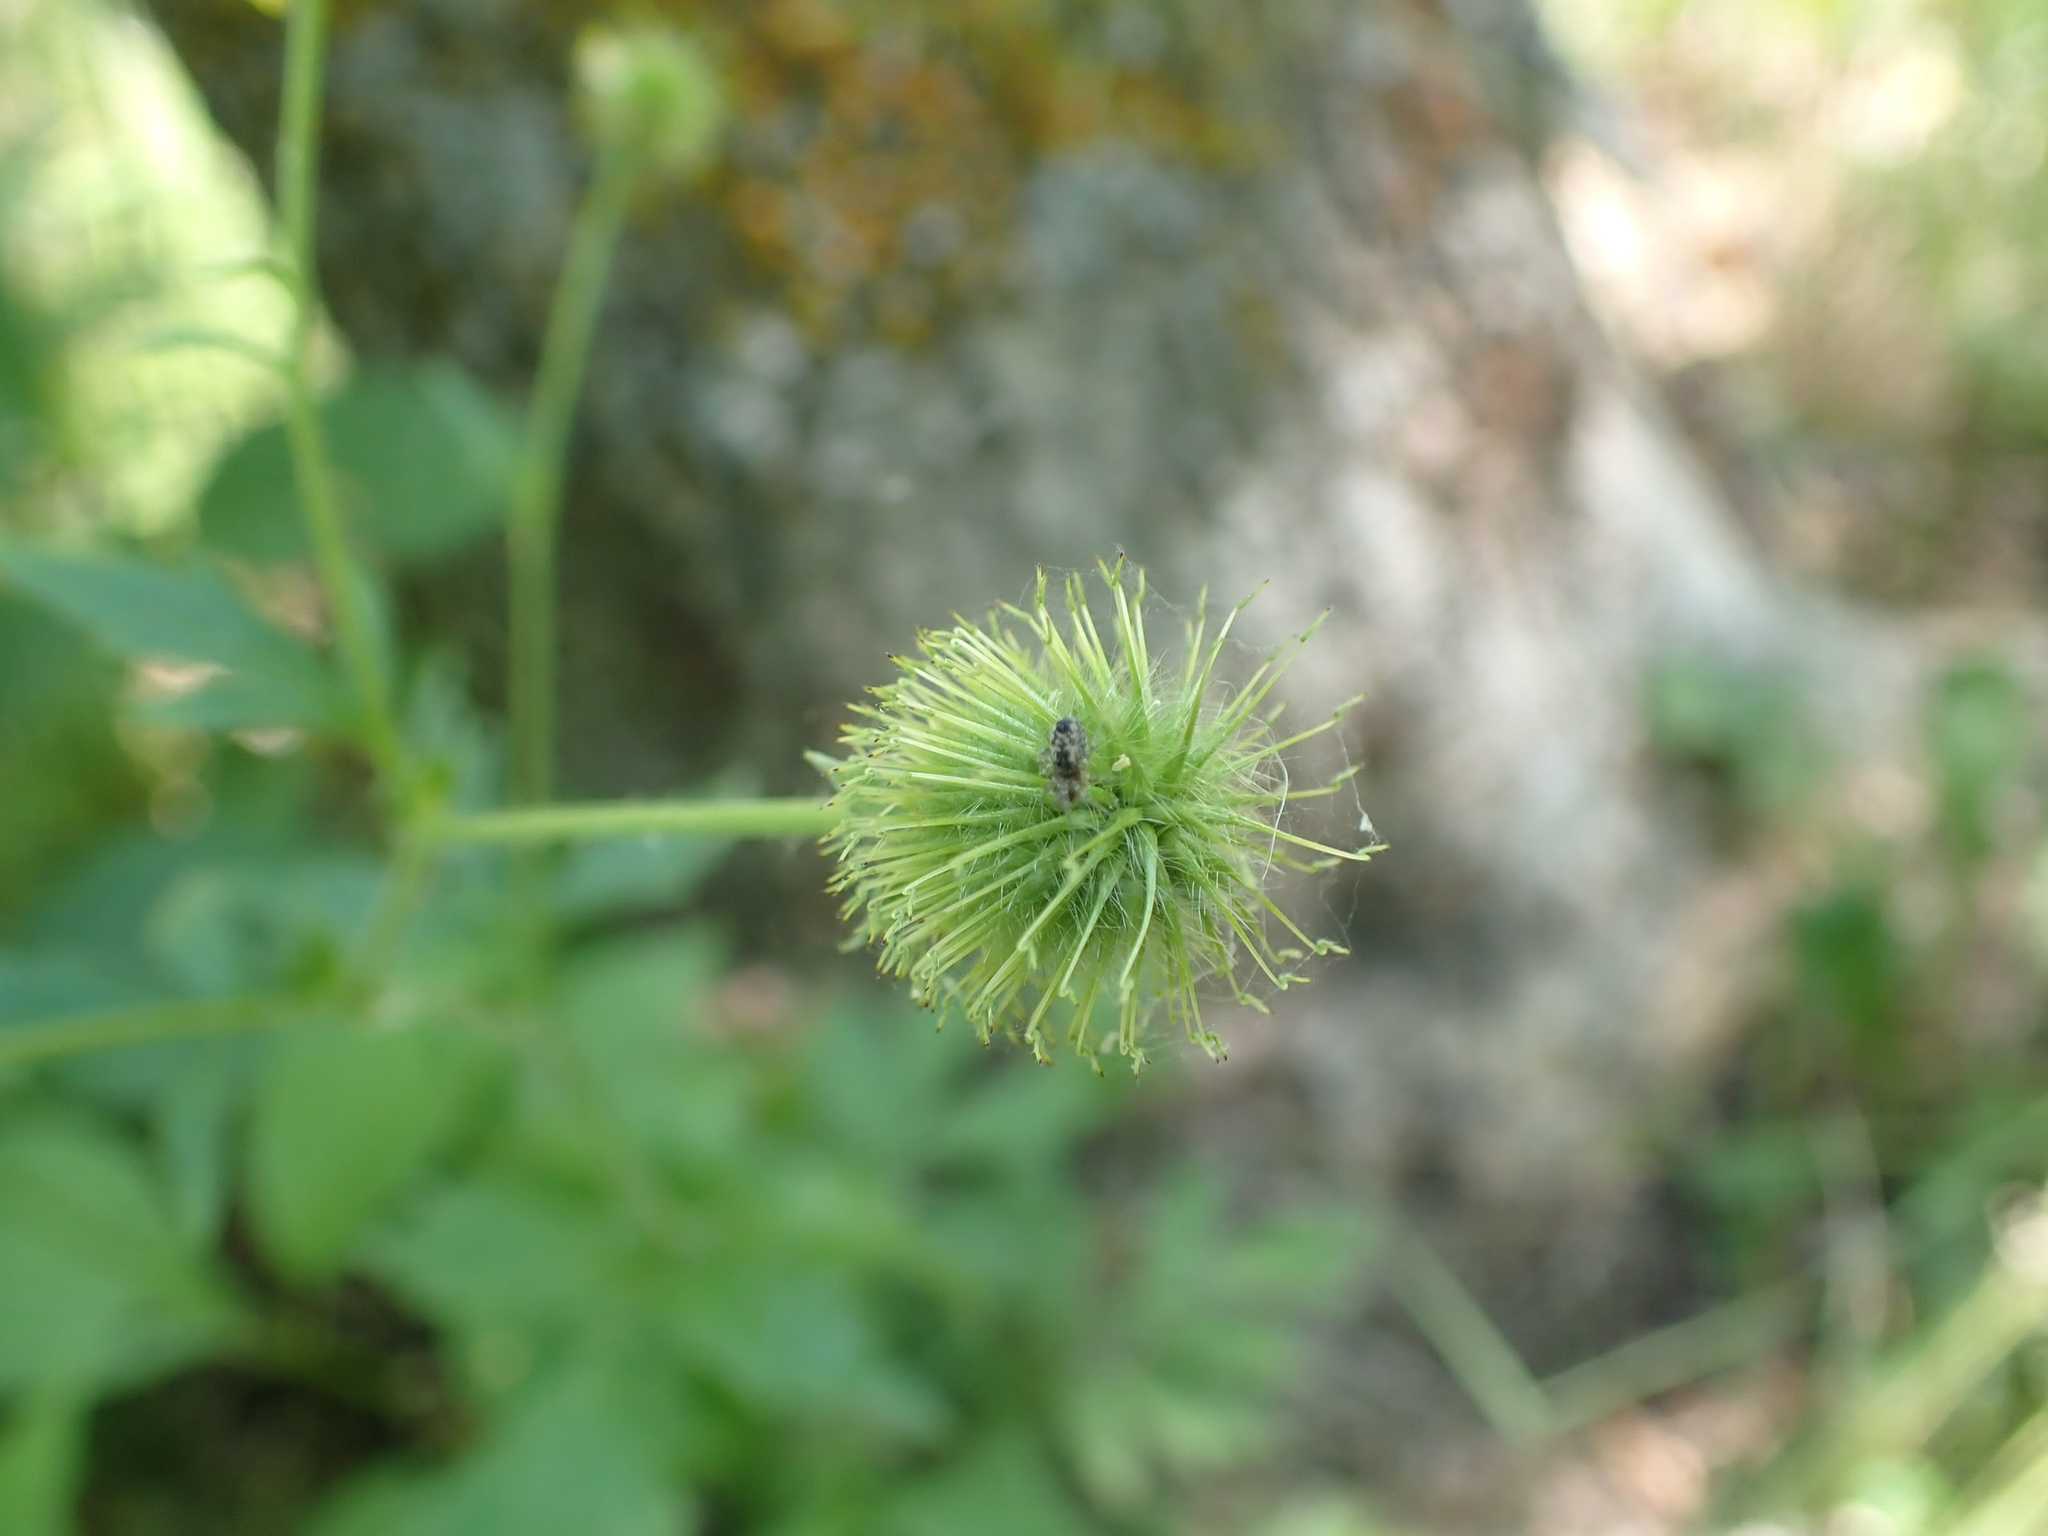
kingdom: Plantae
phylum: Tracheophyta
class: Magnoliopsida
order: Rosales
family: Rosaceae
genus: Geum
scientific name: Geum aleppicum
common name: Yellow avens
